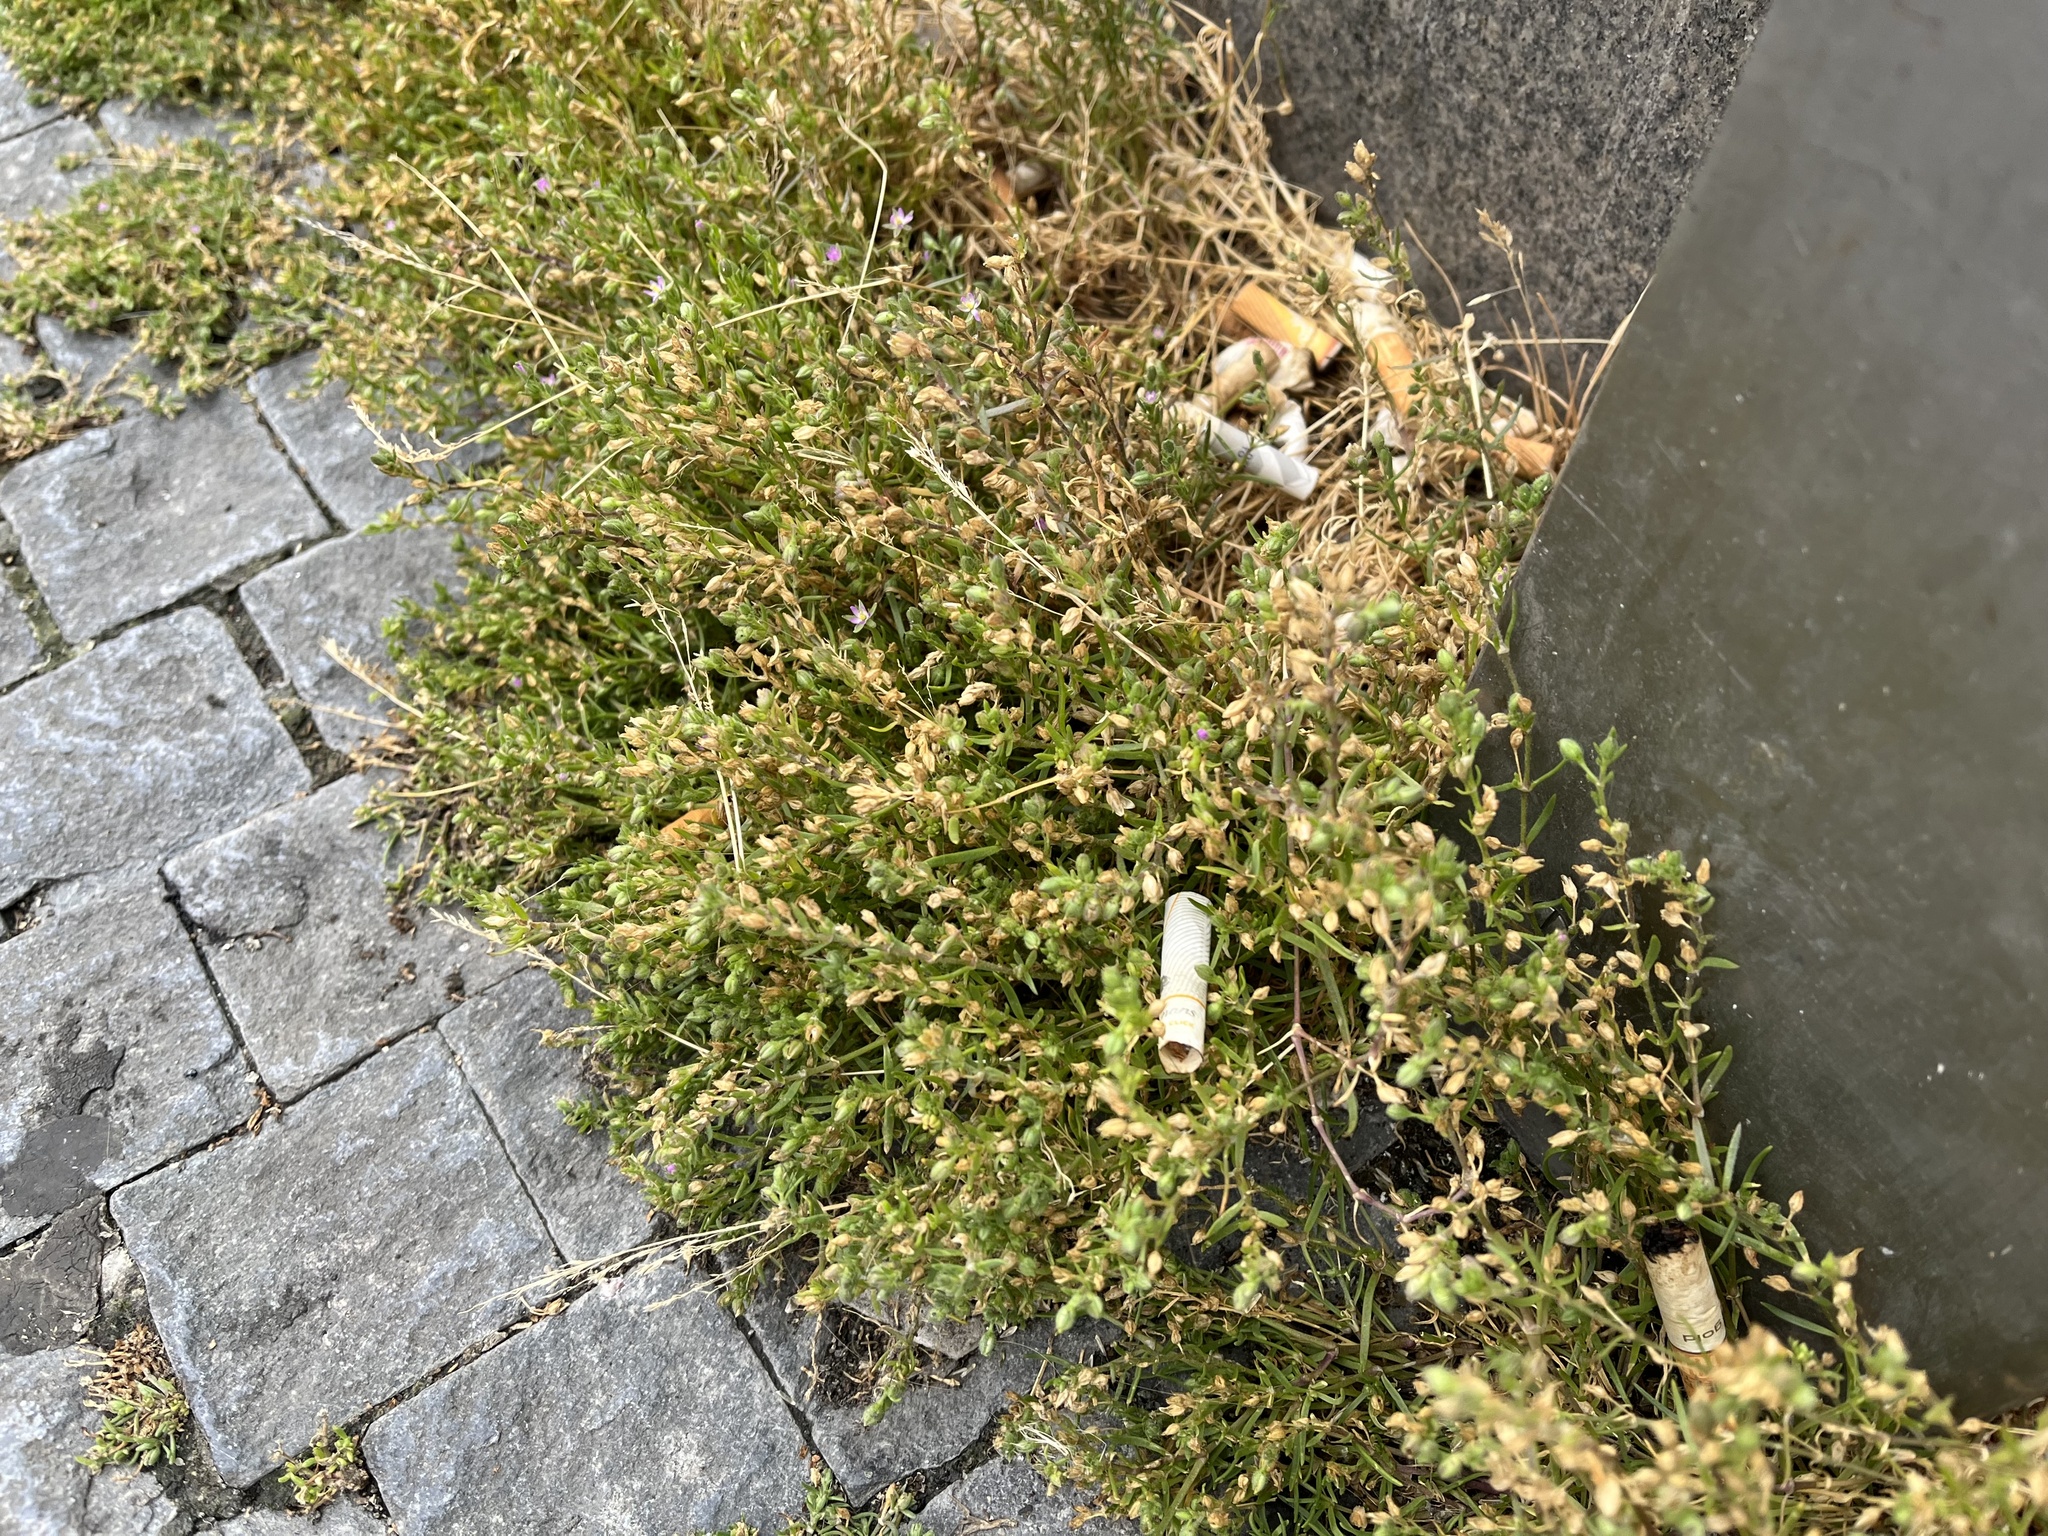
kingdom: Plantae
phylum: Tracheophyta
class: Magnoliopsida
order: Caryophyllales
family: Caryophyllaceae
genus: Spergularia
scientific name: Spergularia marina
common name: Lesser sea-spurrey
